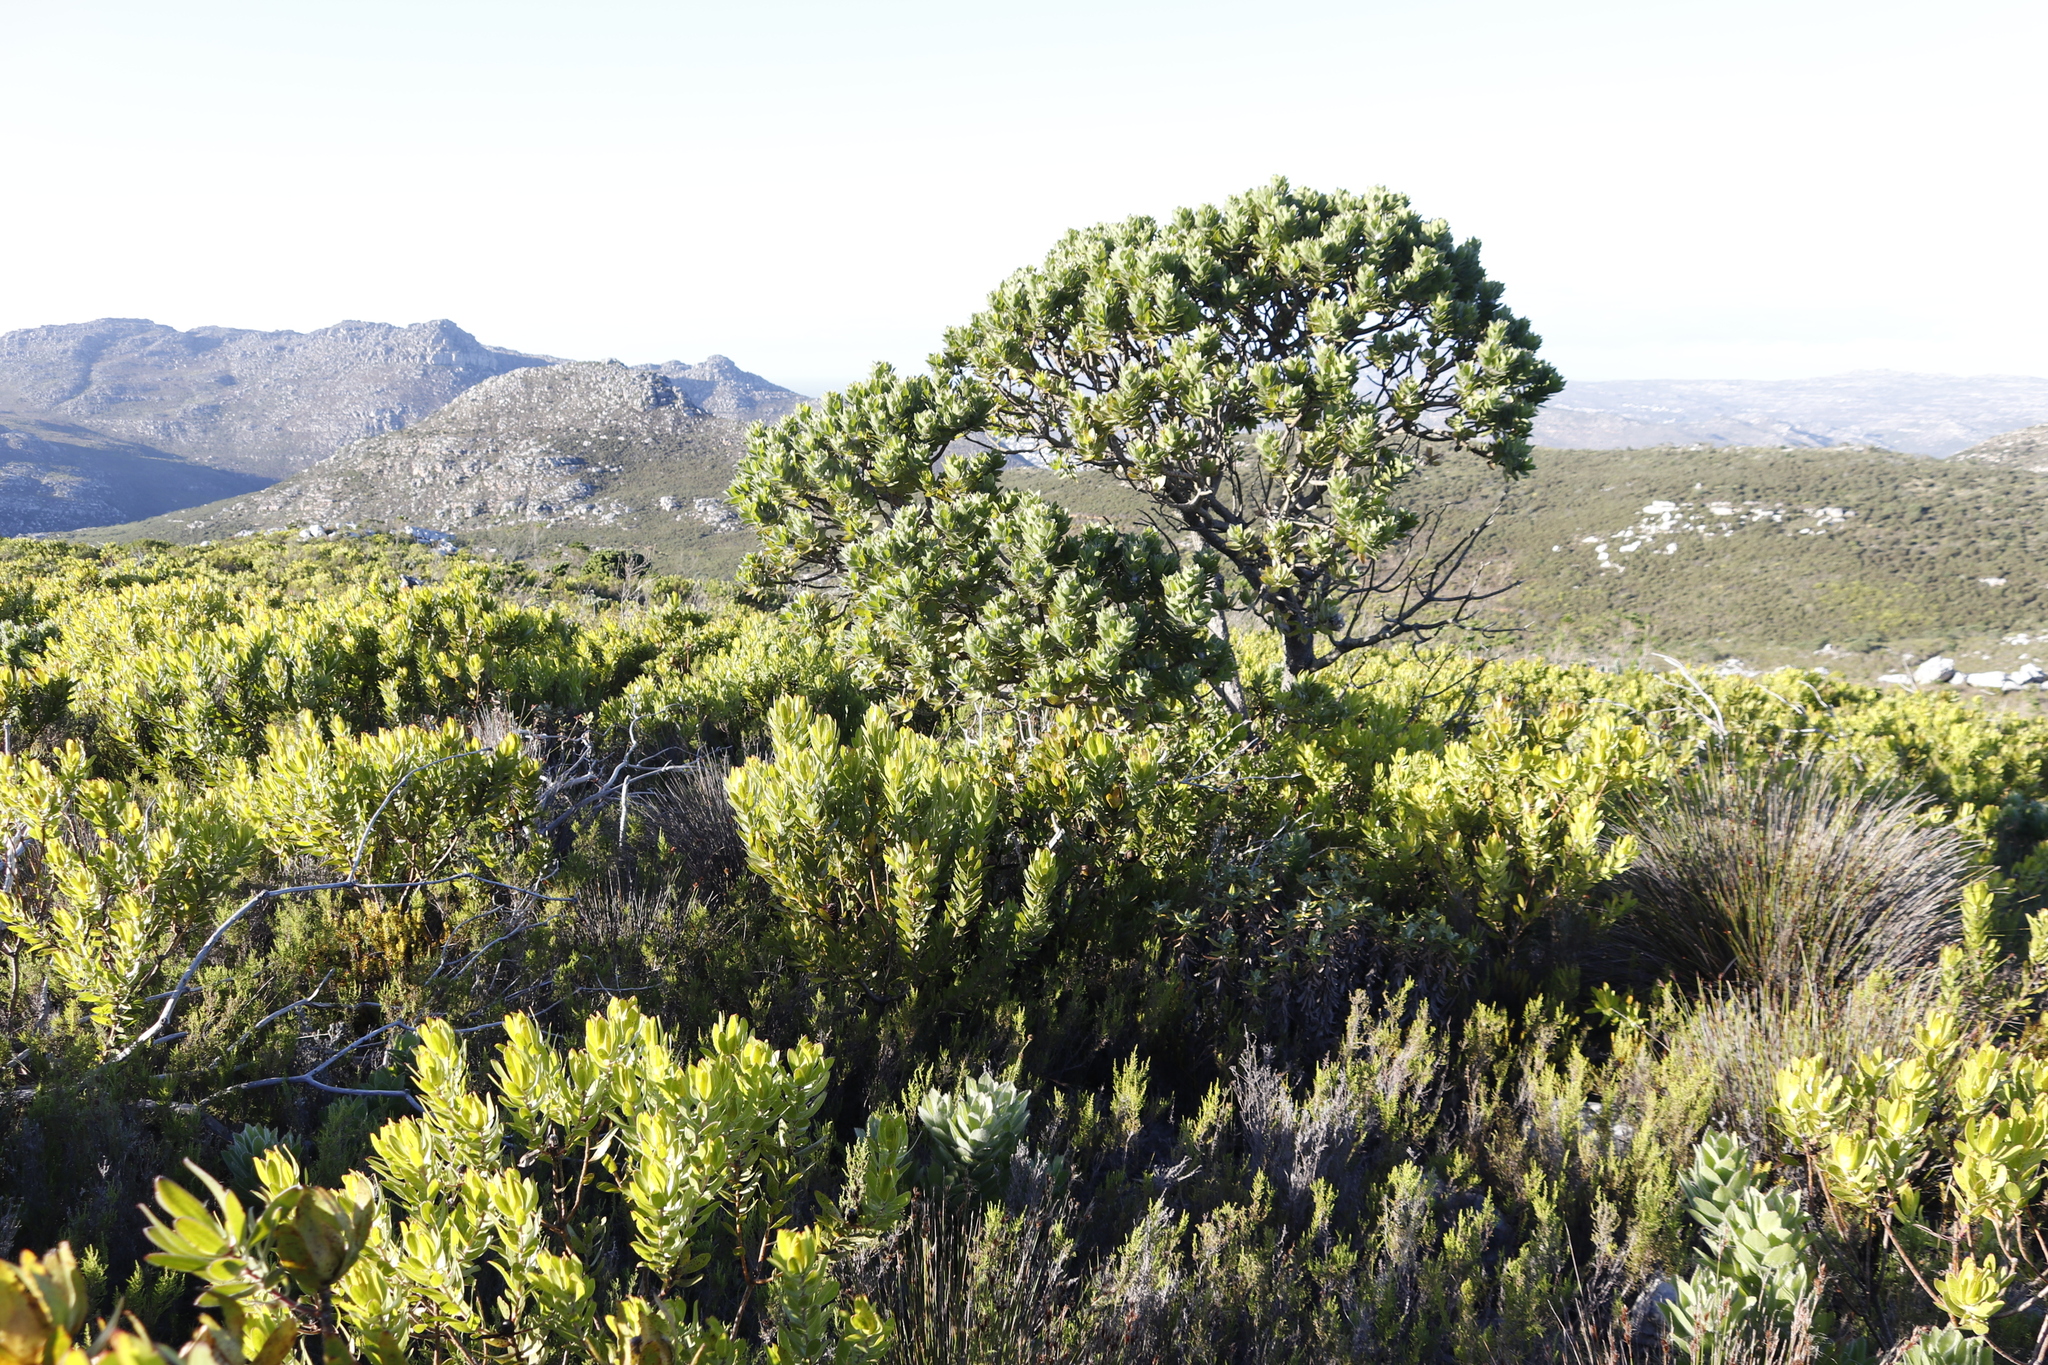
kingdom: Plantae
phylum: Tracheophyta
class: Magnoliopsida
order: Proteales
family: Proteaceae
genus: Leucospermum
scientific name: Leucospermum conocarpodendron
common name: Tree pincushion
